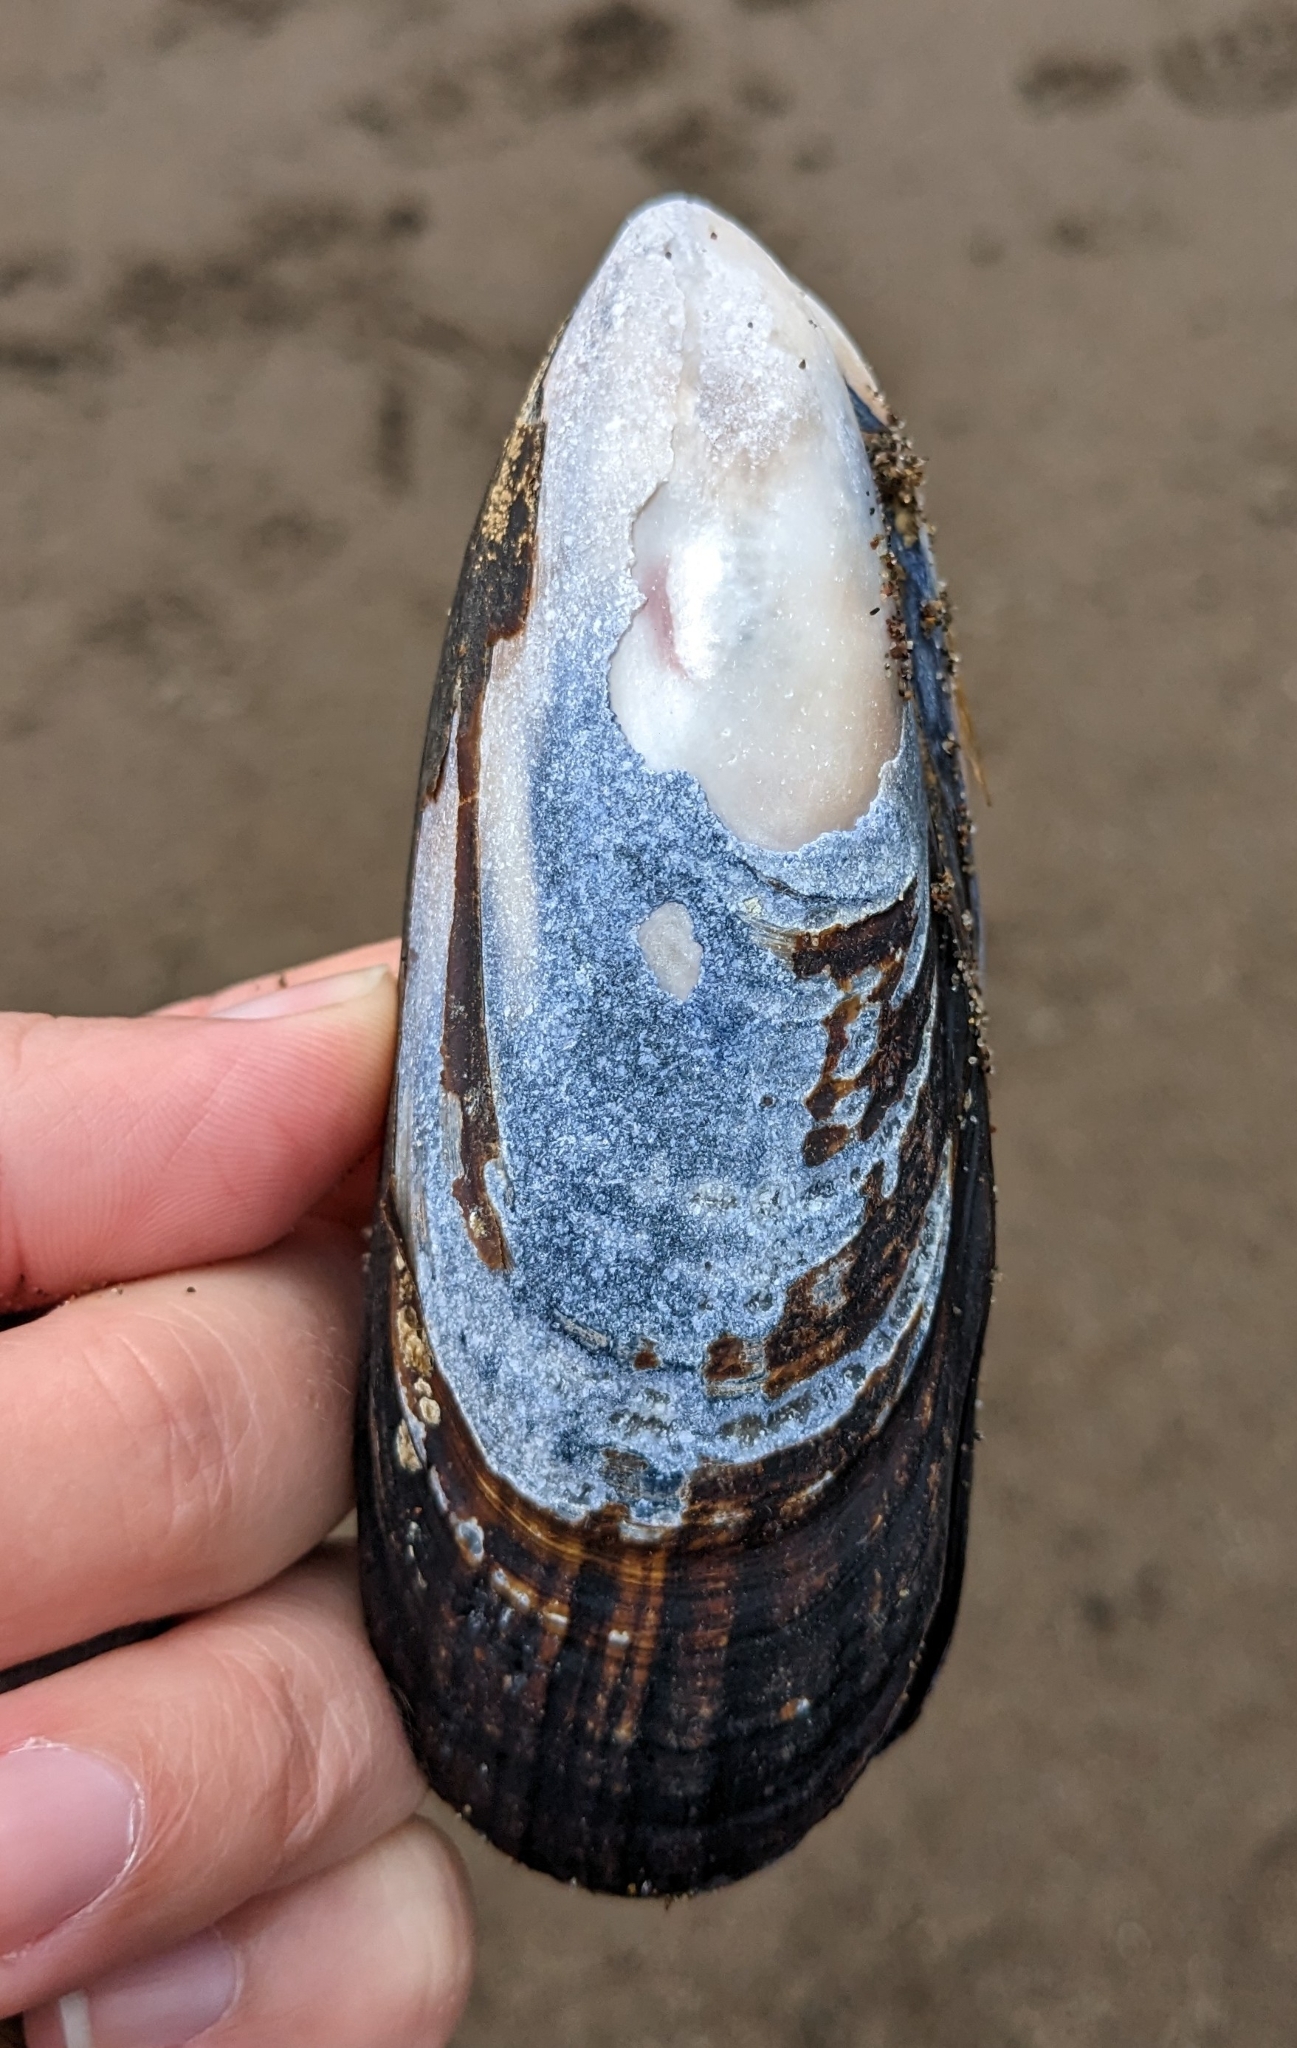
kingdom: Animalia
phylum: Mollusca
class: Bivalvia
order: Mytilida
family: Mytilidae
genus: Mytilus
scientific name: Mytilus californianus
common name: California mussel
